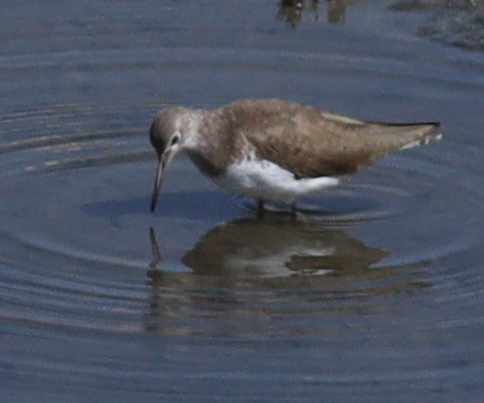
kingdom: Animalia
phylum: Chordata
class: Aves
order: Charadriiformes
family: Scolopacidae
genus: Tringa
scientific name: Tringa ochropus
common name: Green sandpiper
